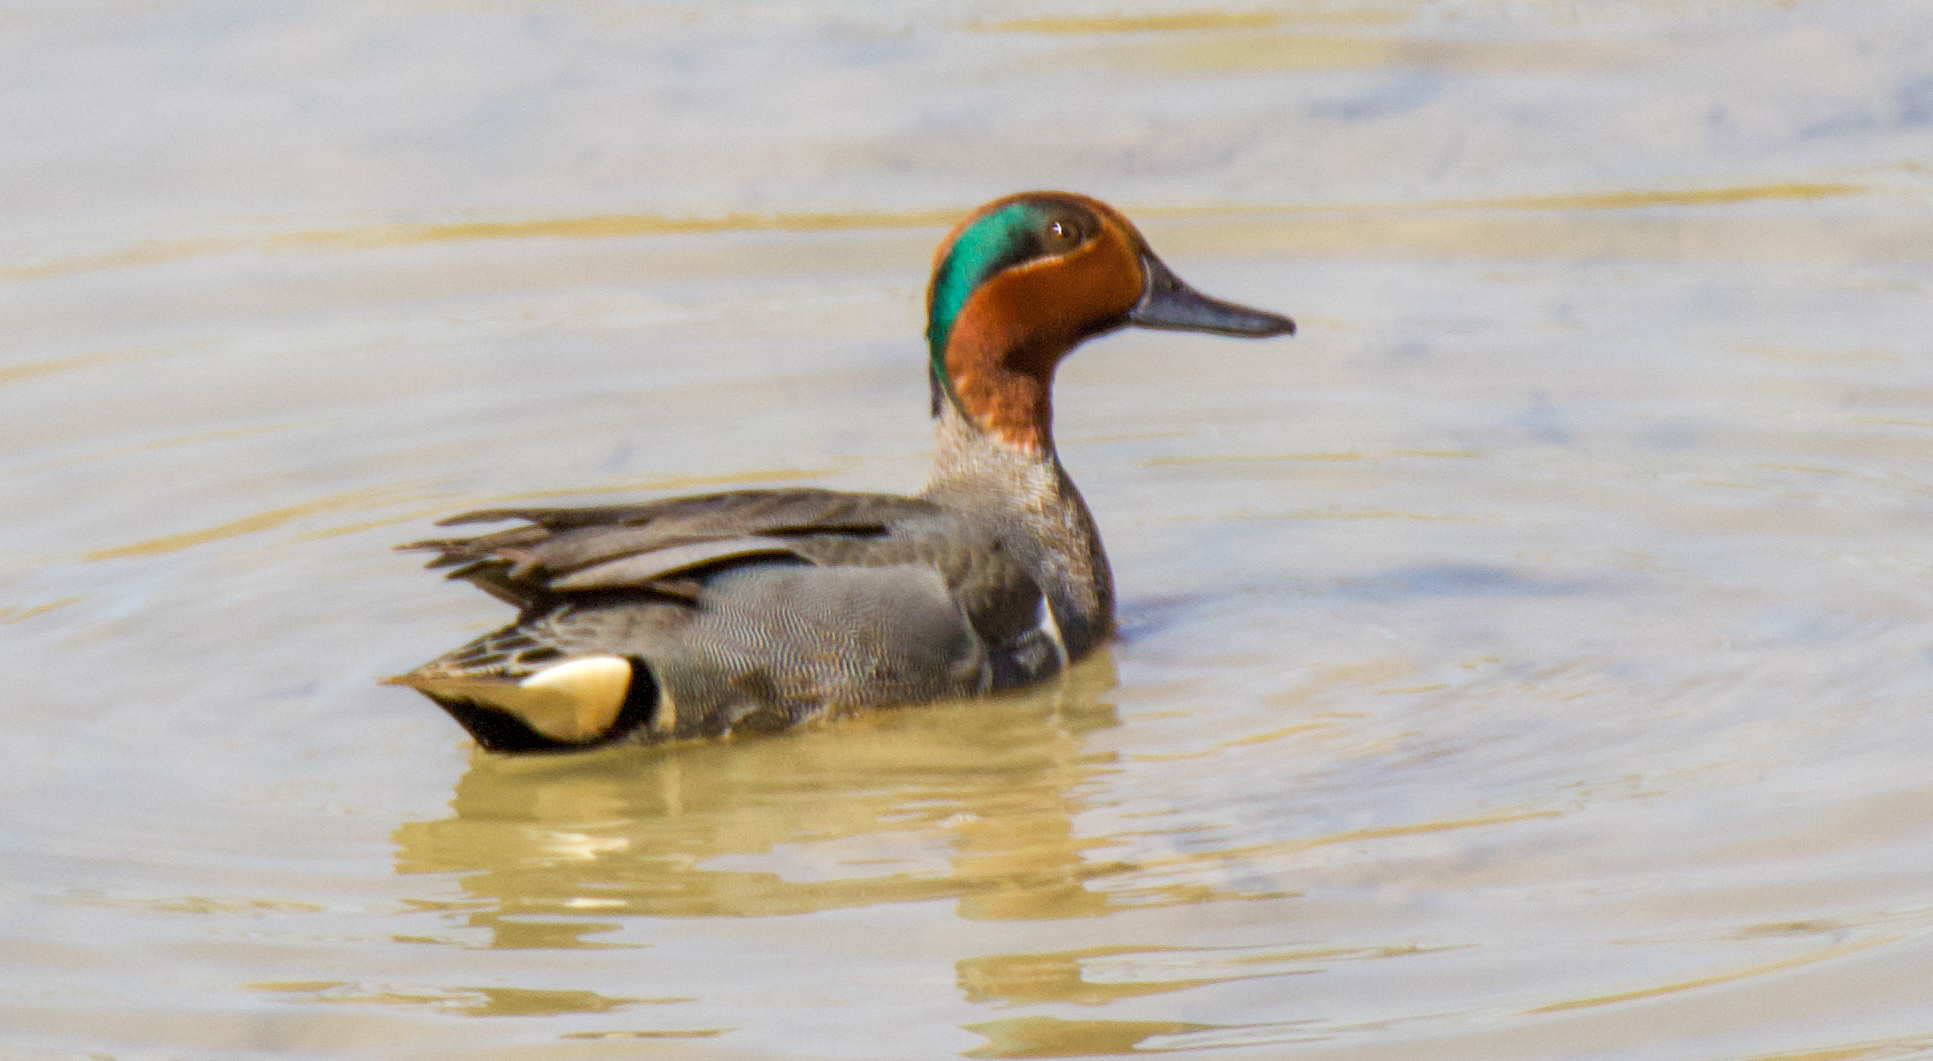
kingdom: Animalia
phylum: Chordata
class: Aves
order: Anseriformes
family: Anatidae
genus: Anas
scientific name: Anas crecca
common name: Eurasian teal
